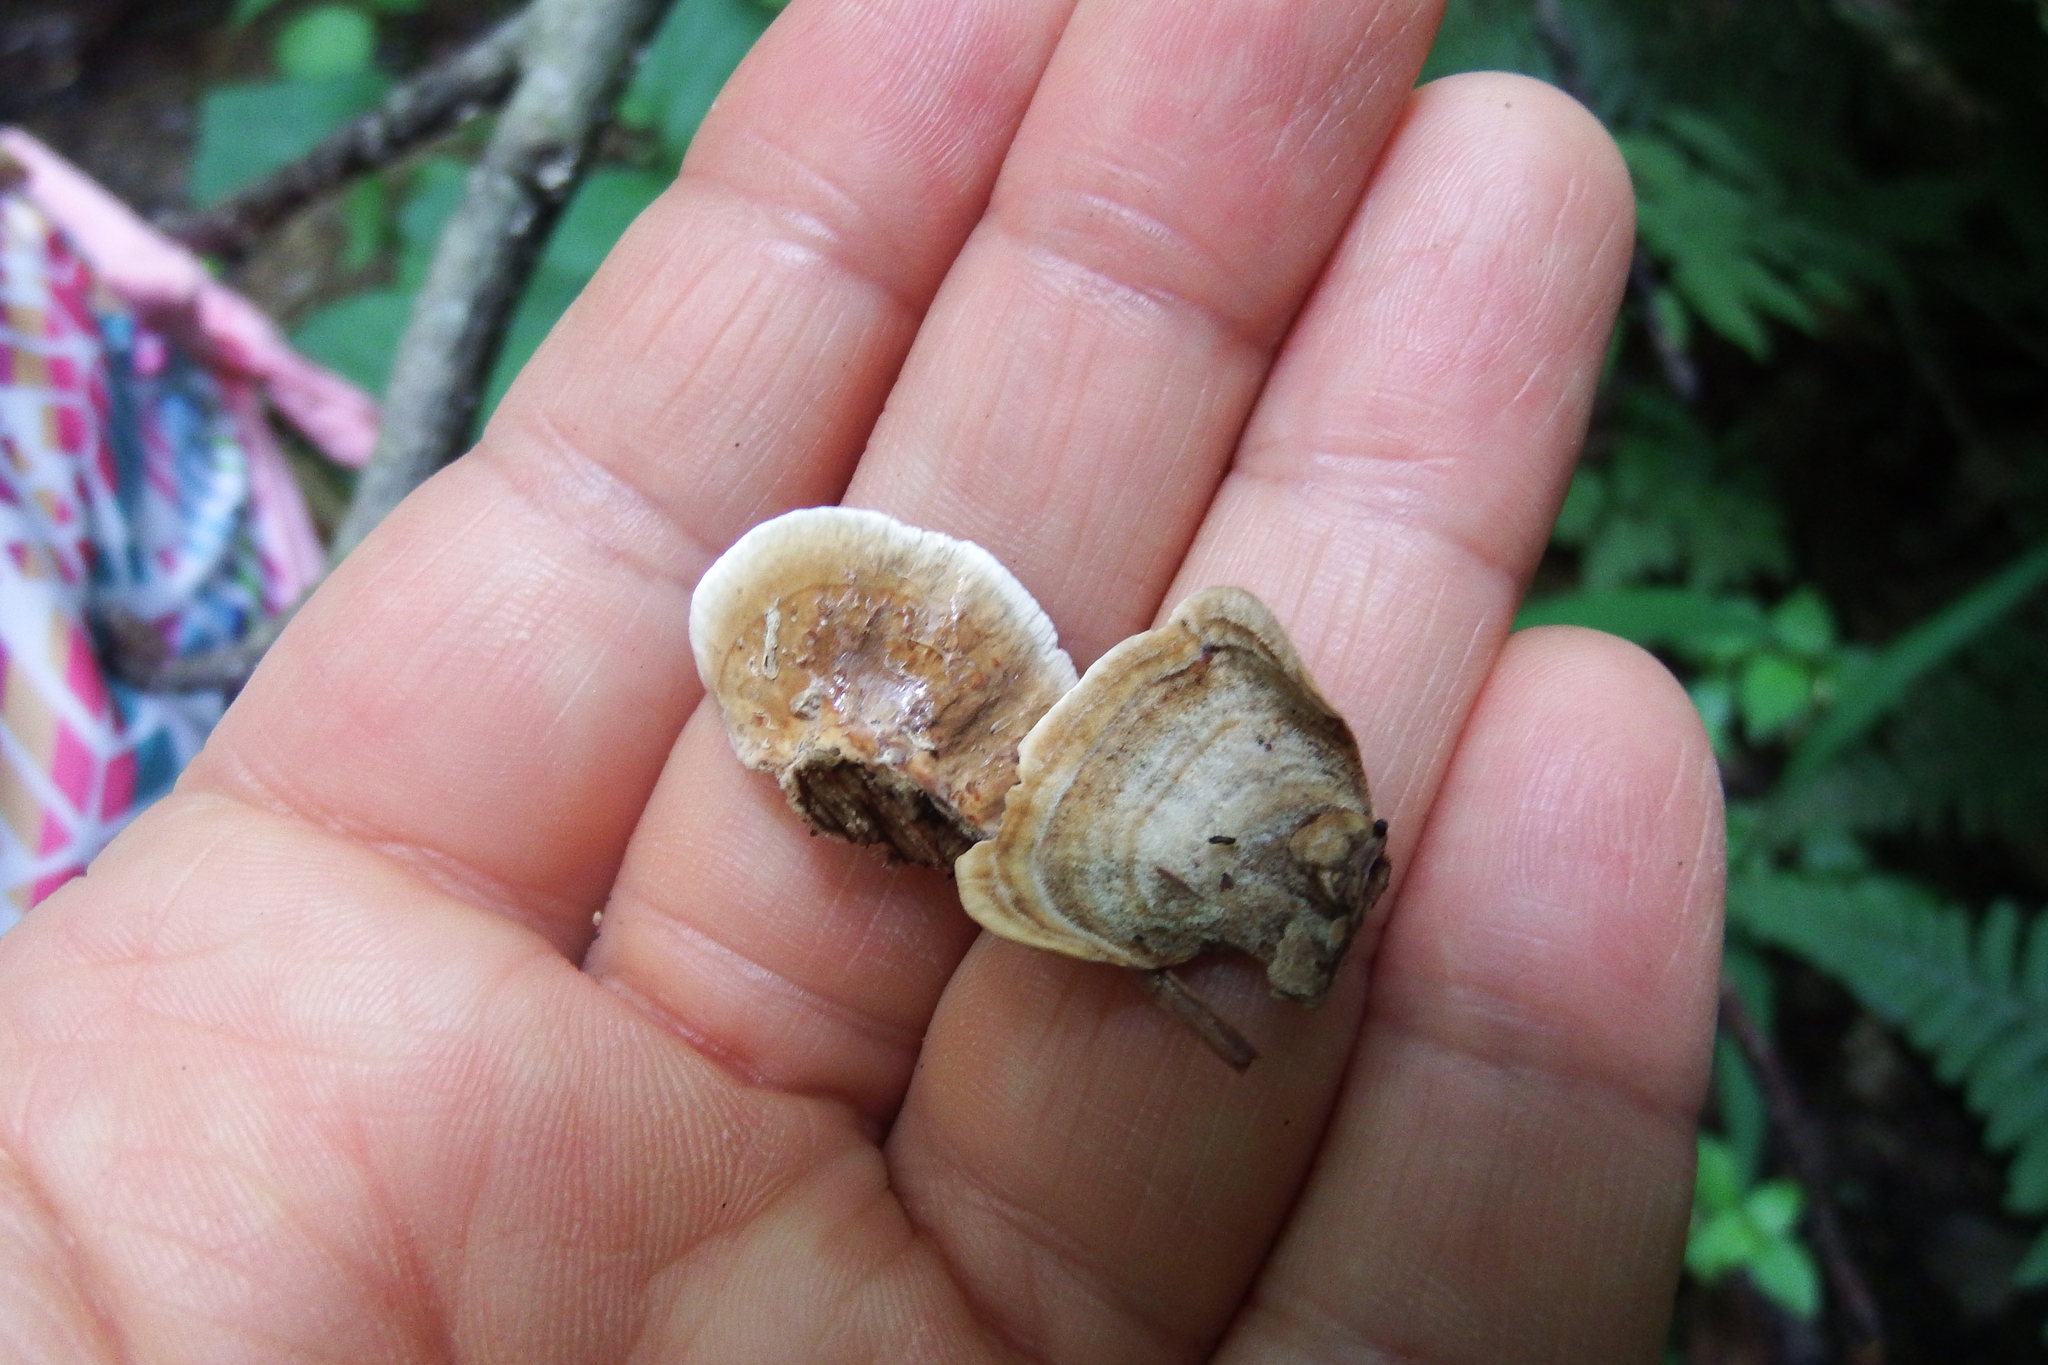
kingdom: Fungi
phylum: Basidiomycota
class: Agaricomycetes
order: Russulales
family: Stereaceae
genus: Stereum
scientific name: Stereum ostrea
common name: False turkeytail
